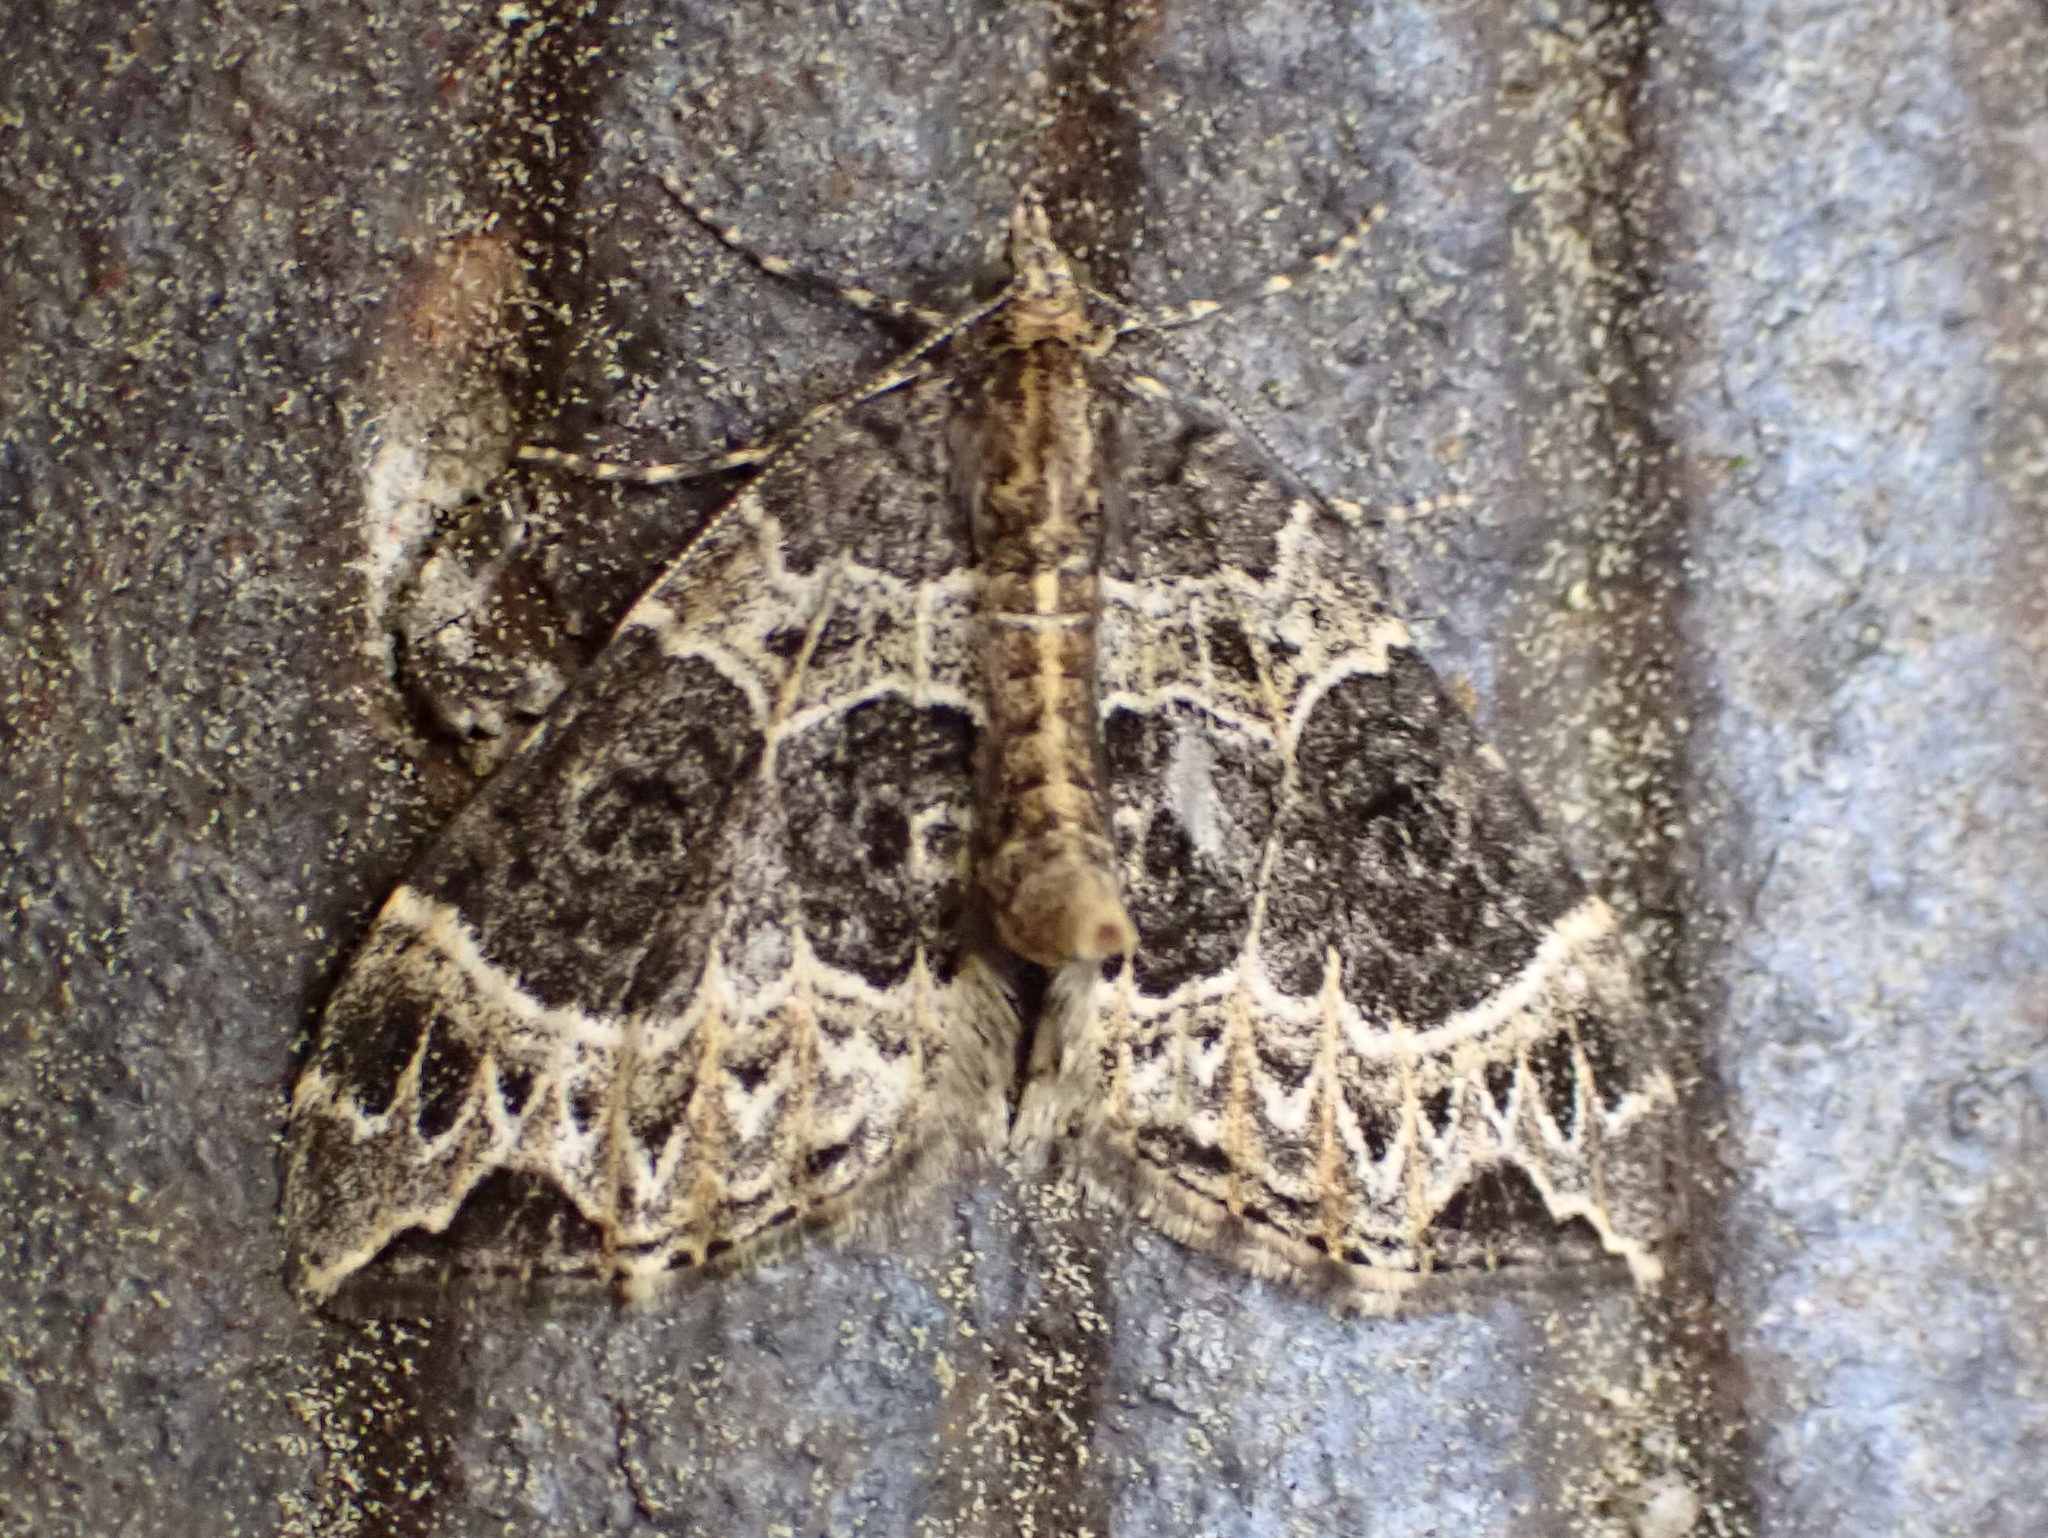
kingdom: Animalia
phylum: Arthropoda
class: Insecta
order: Lepidoptera
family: Geometridae
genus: Ecliptopera
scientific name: Ecliptopera silaceata
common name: Small phoenix
